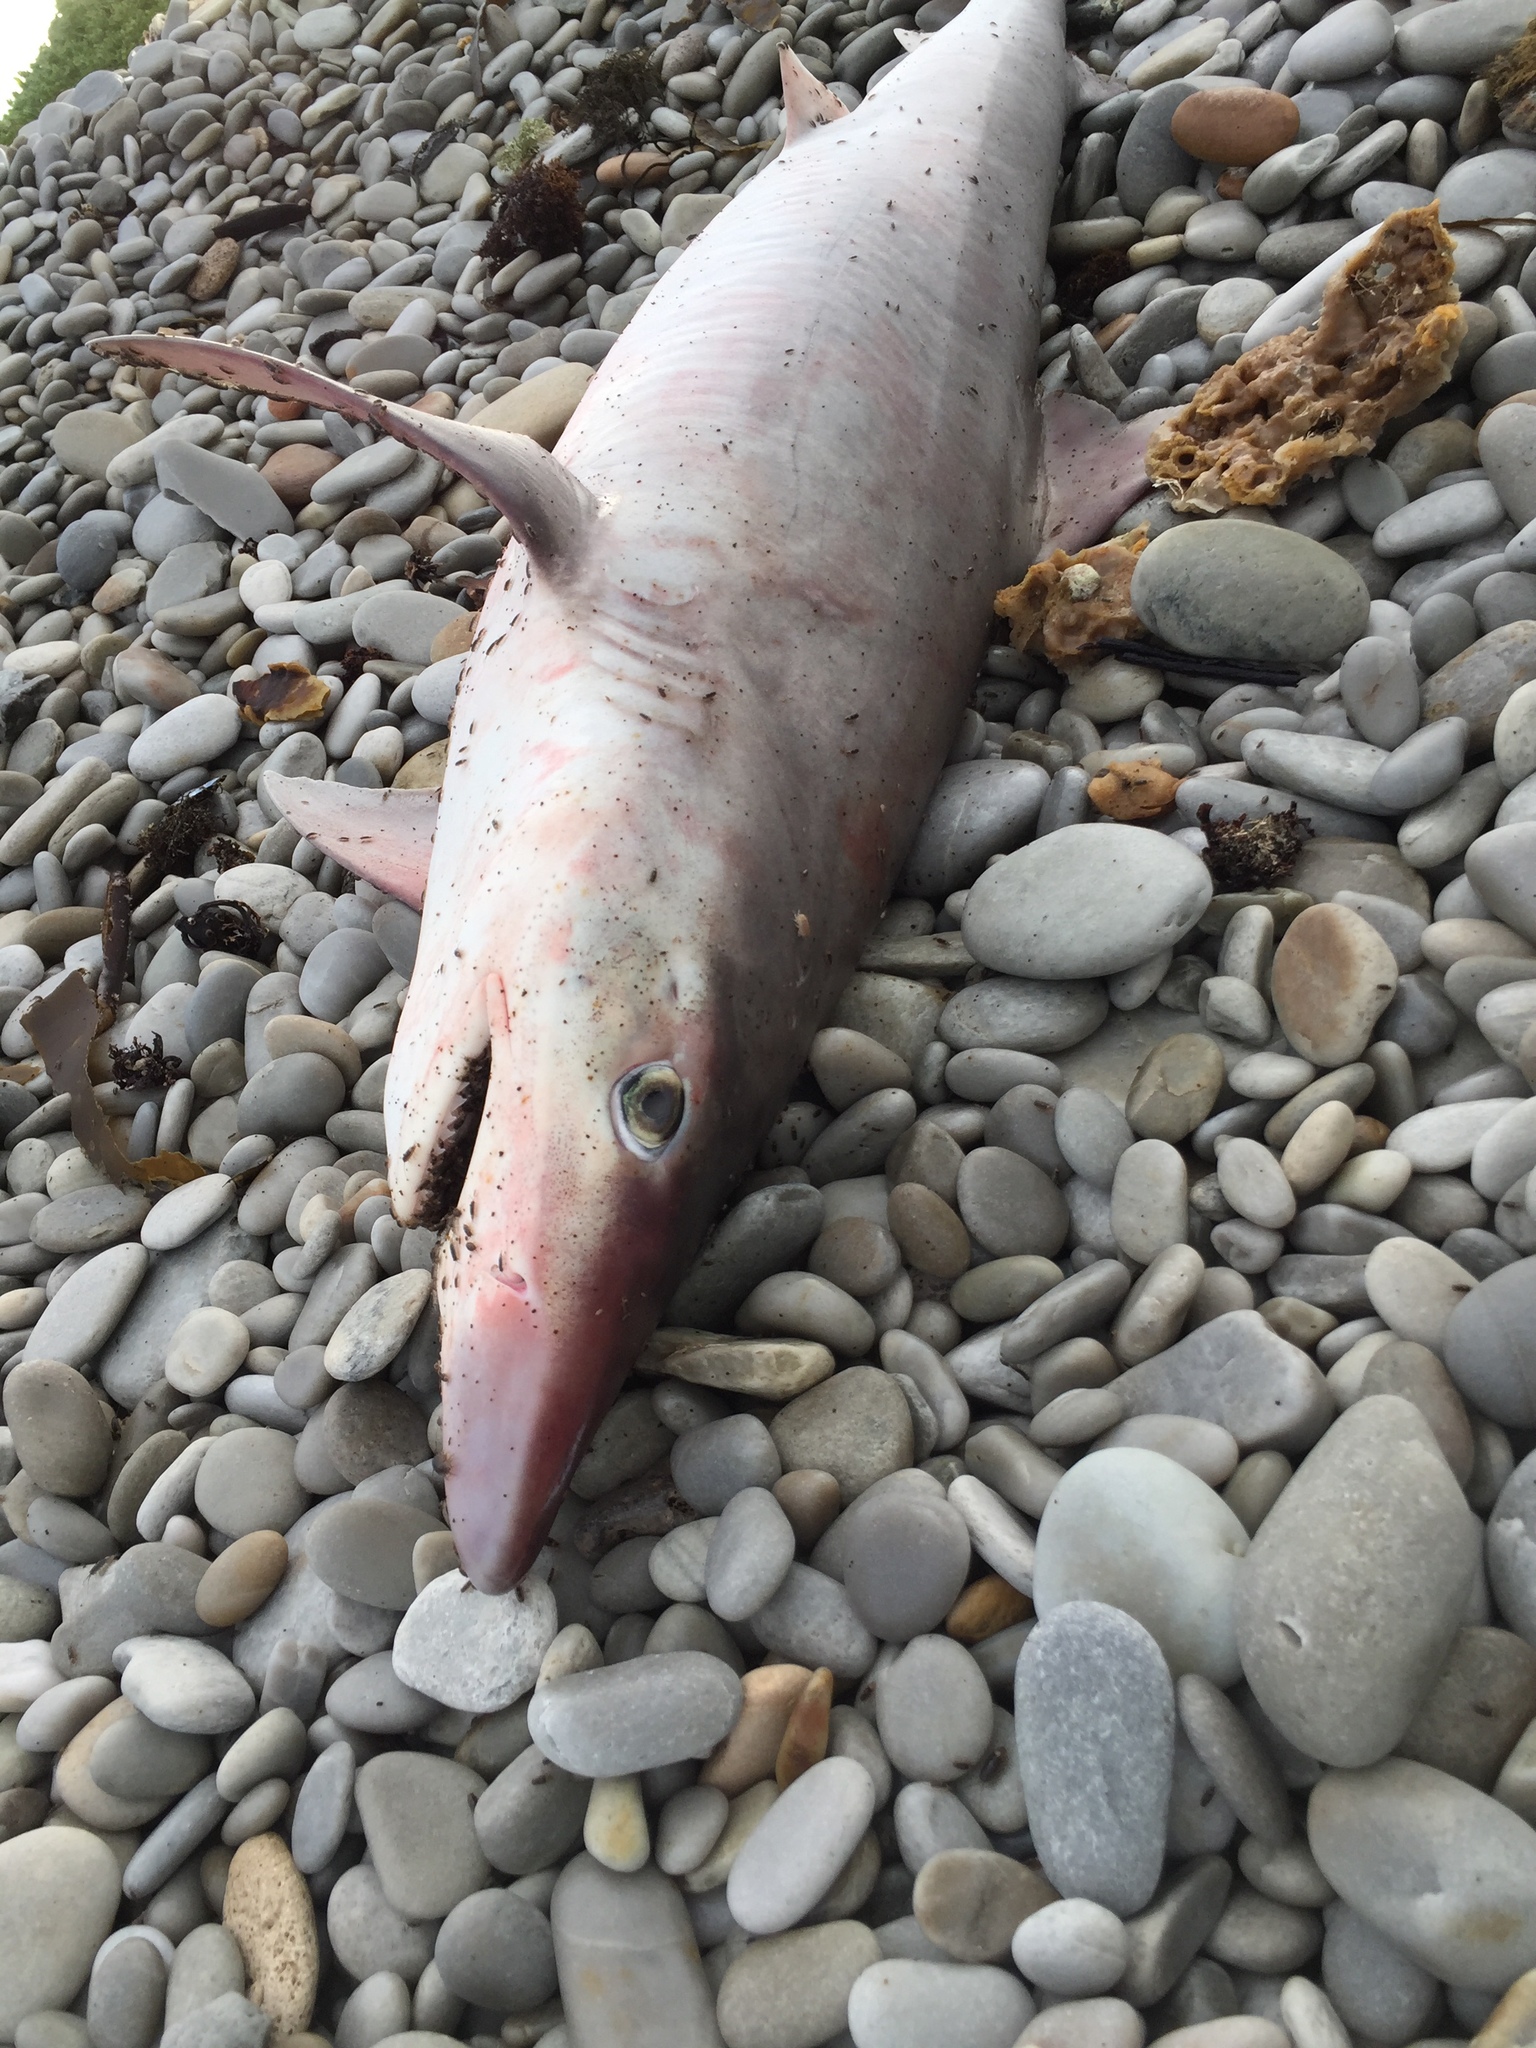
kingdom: Animalia
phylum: Chordata
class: Elasmobranchii
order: Carcharhiniformes
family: Triakidae
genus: Galeorhinus
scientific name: Galeorhinus galeus
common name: Tope
